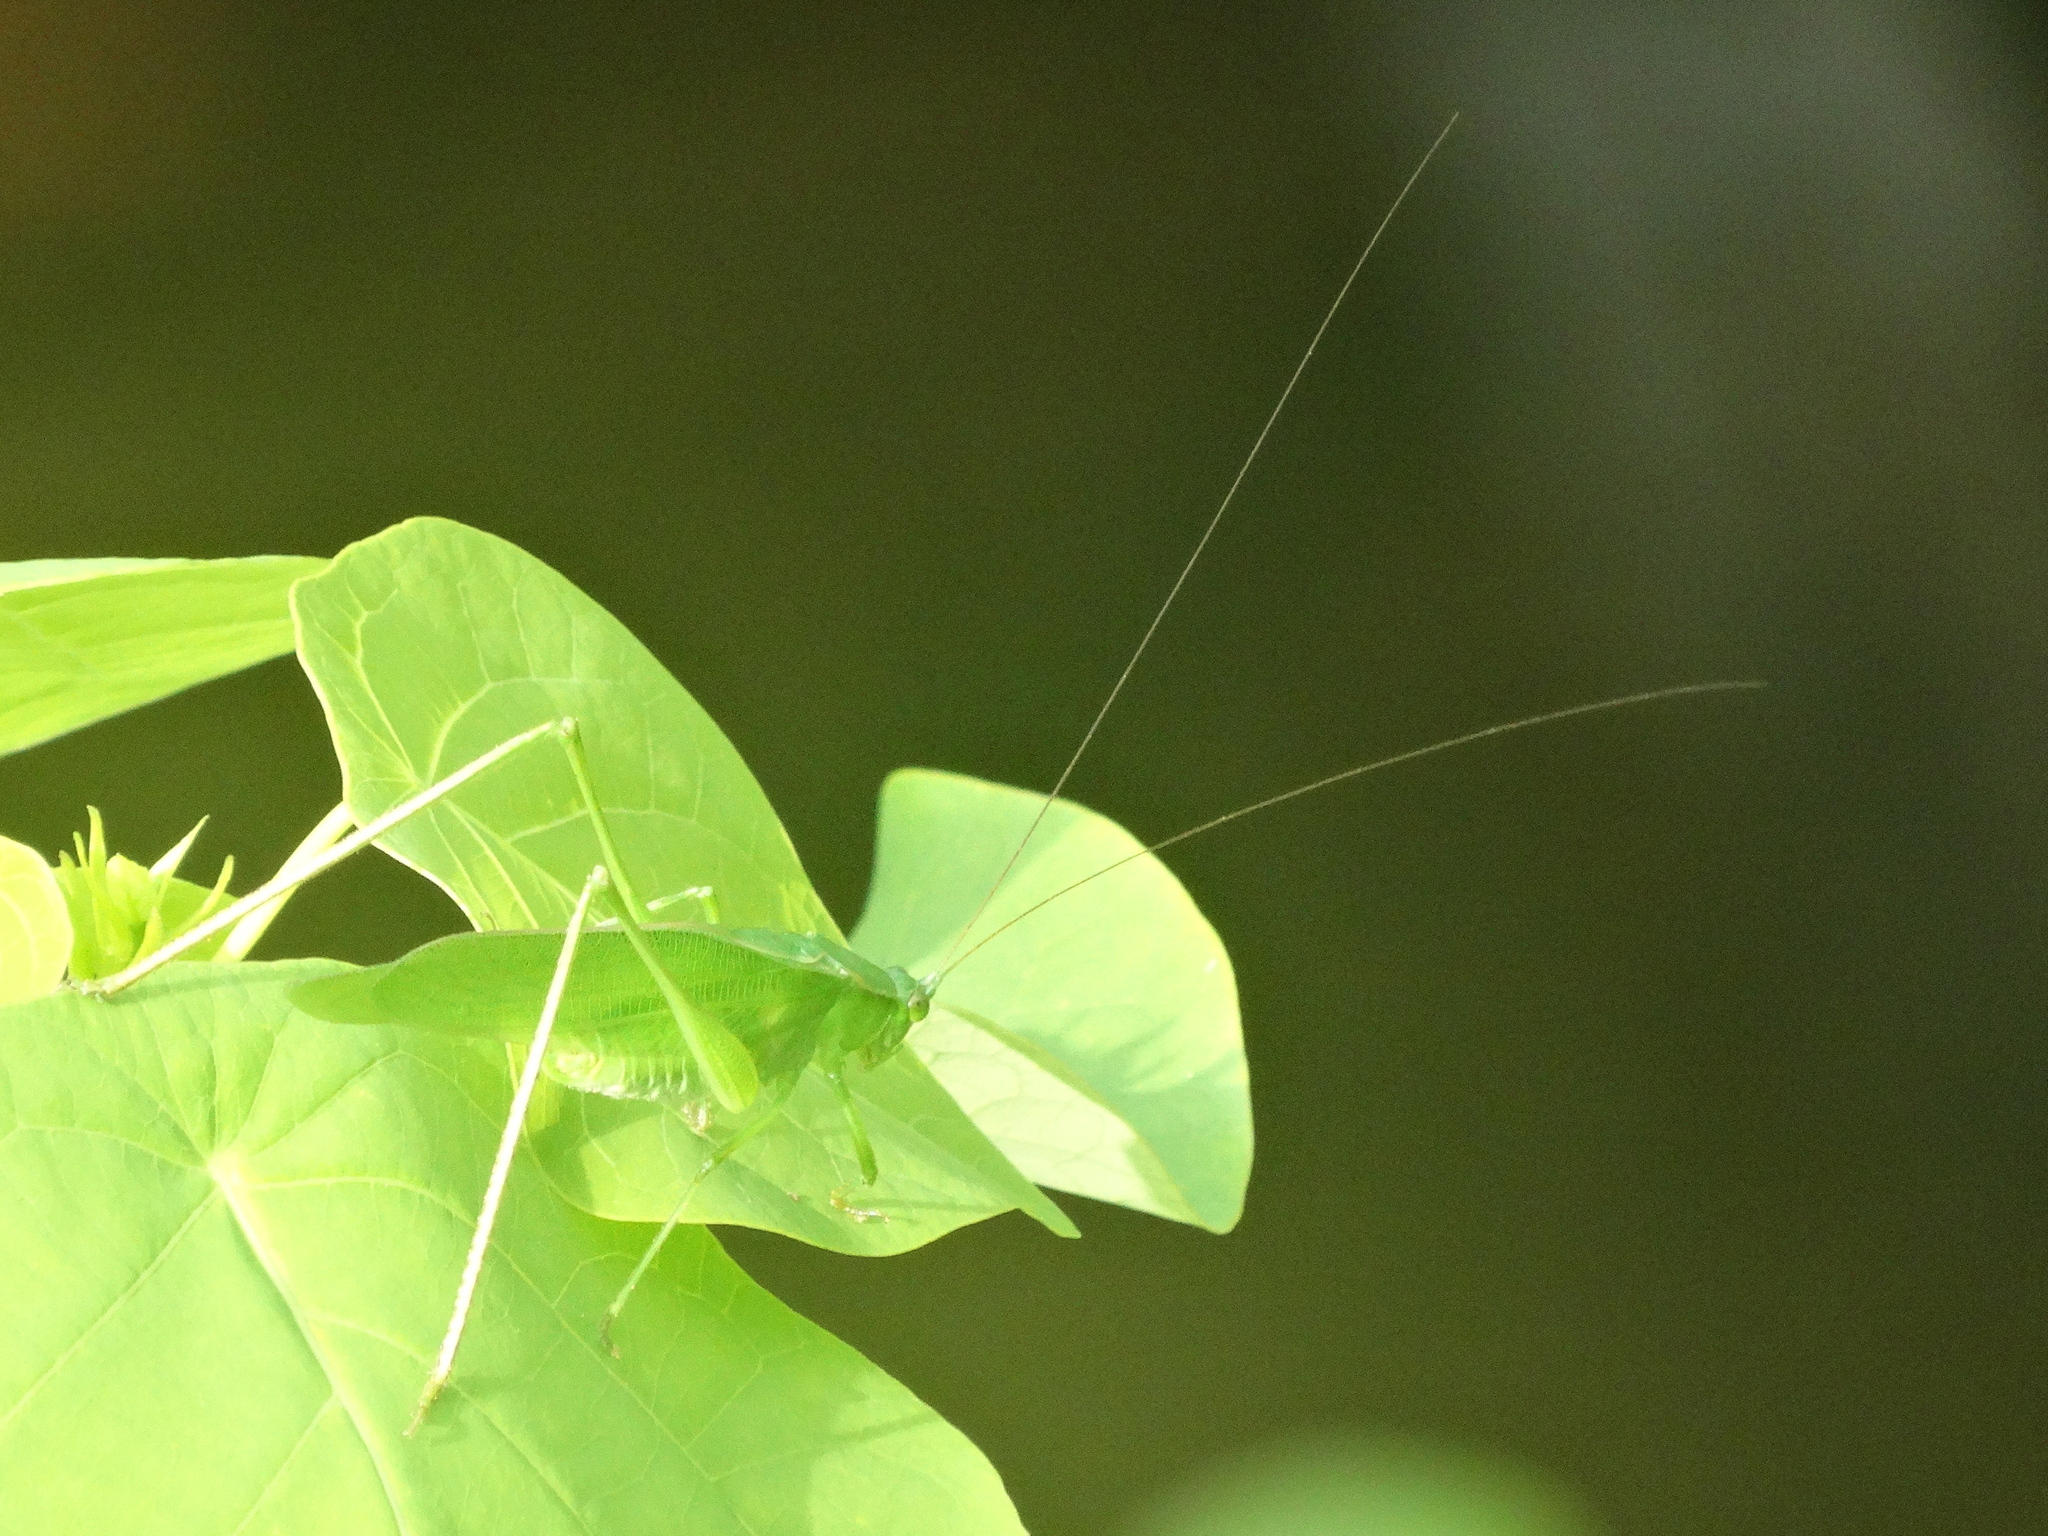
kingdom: Animalia
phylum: Arthropoda
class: Insecta
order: Orthoptera
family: Tettigoniidae
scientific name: Tettigoniidae
